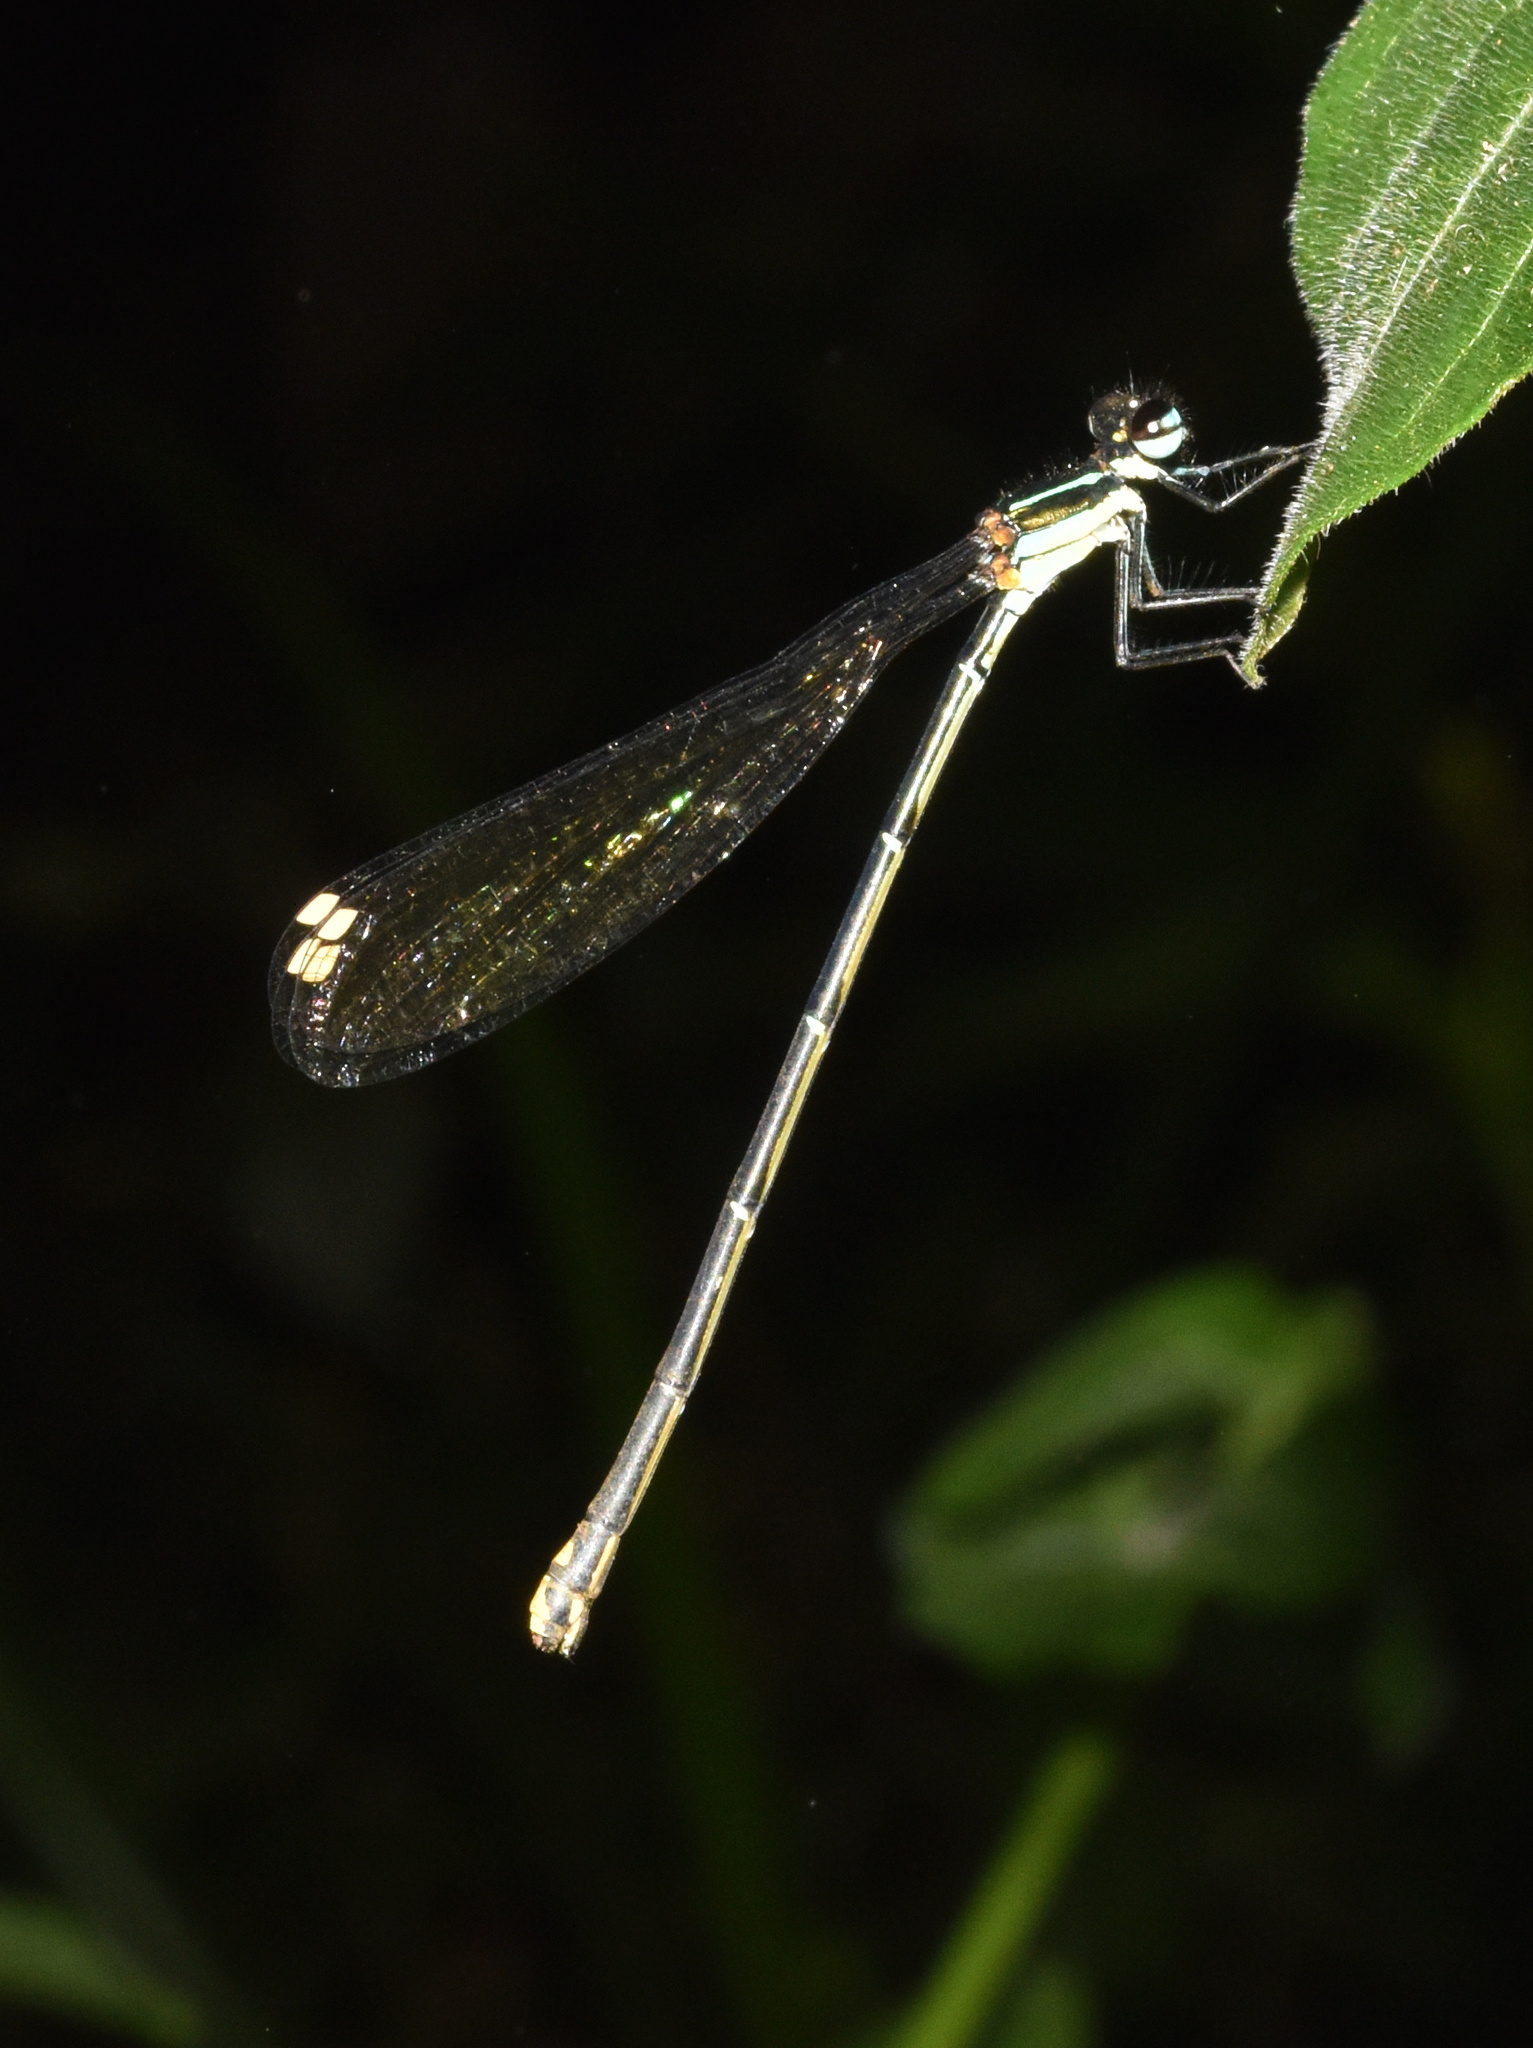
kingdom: Animalia
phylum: Arthropoda
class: Insecta
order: Odonata
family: Platycnemididae
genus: Allocnemis
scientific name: Allocnemis leucosticta
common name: Goldtail
